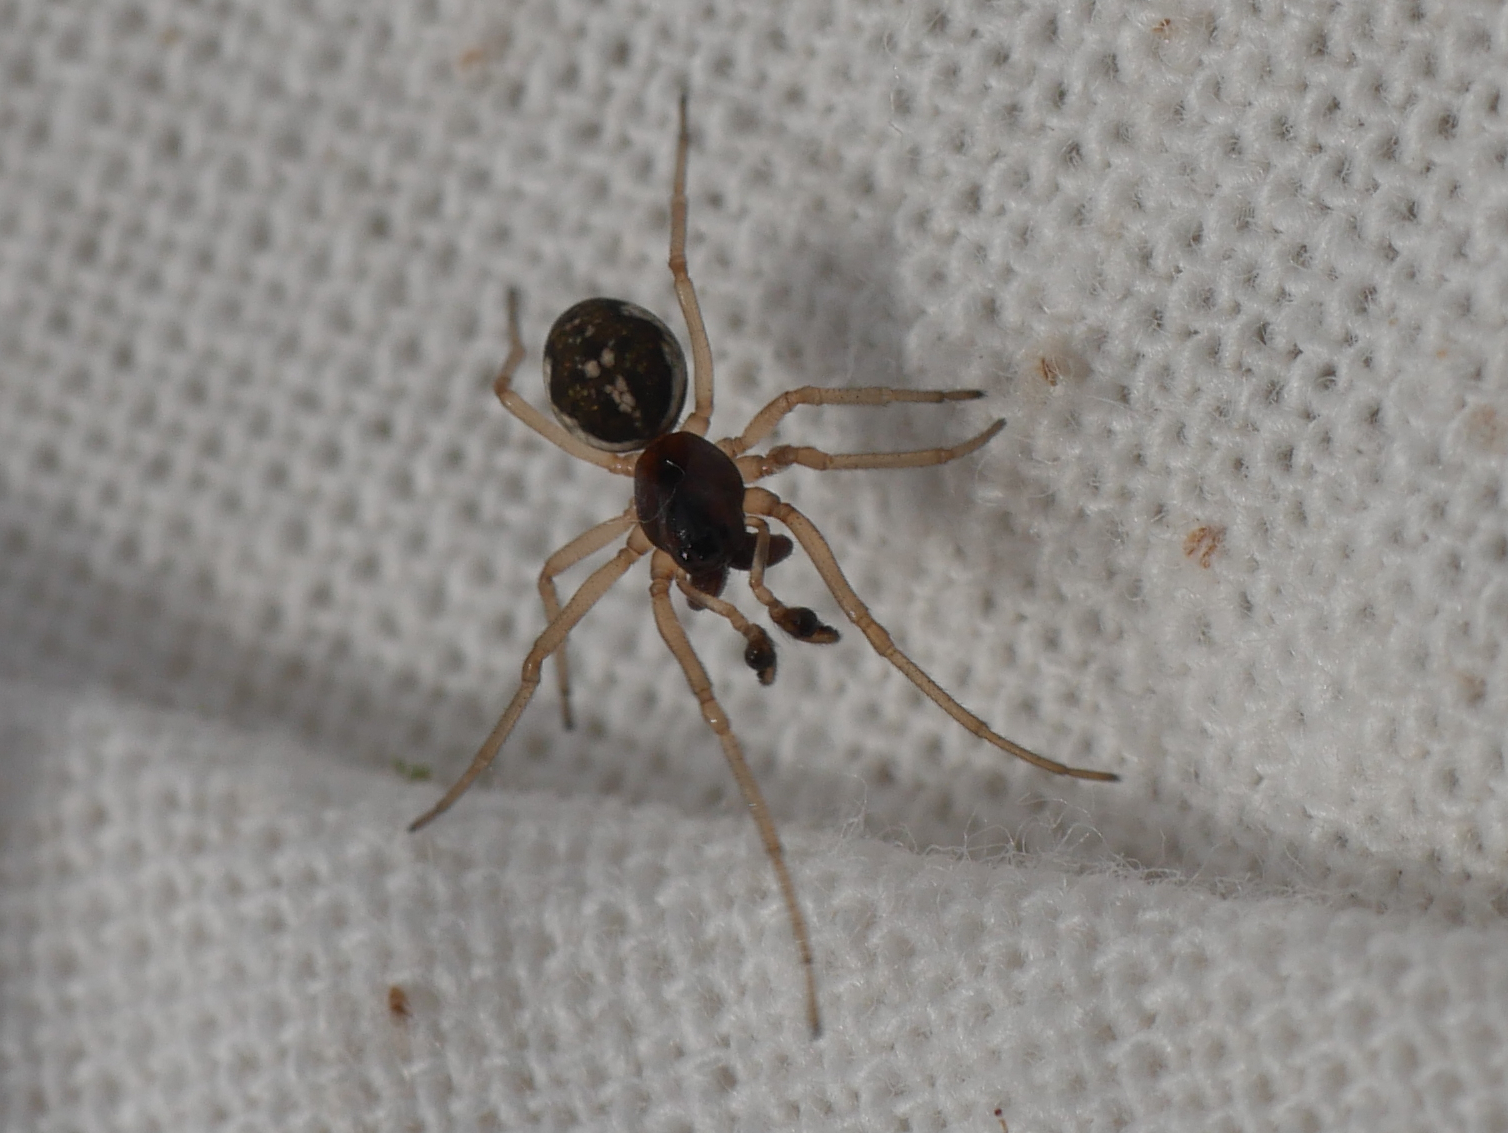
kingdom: Animalia
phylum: Arthropoda
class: Arachnida
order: Araneae
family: Tetragnathidae
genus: Pachygnatha
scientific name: Pachygnatha degeeri
